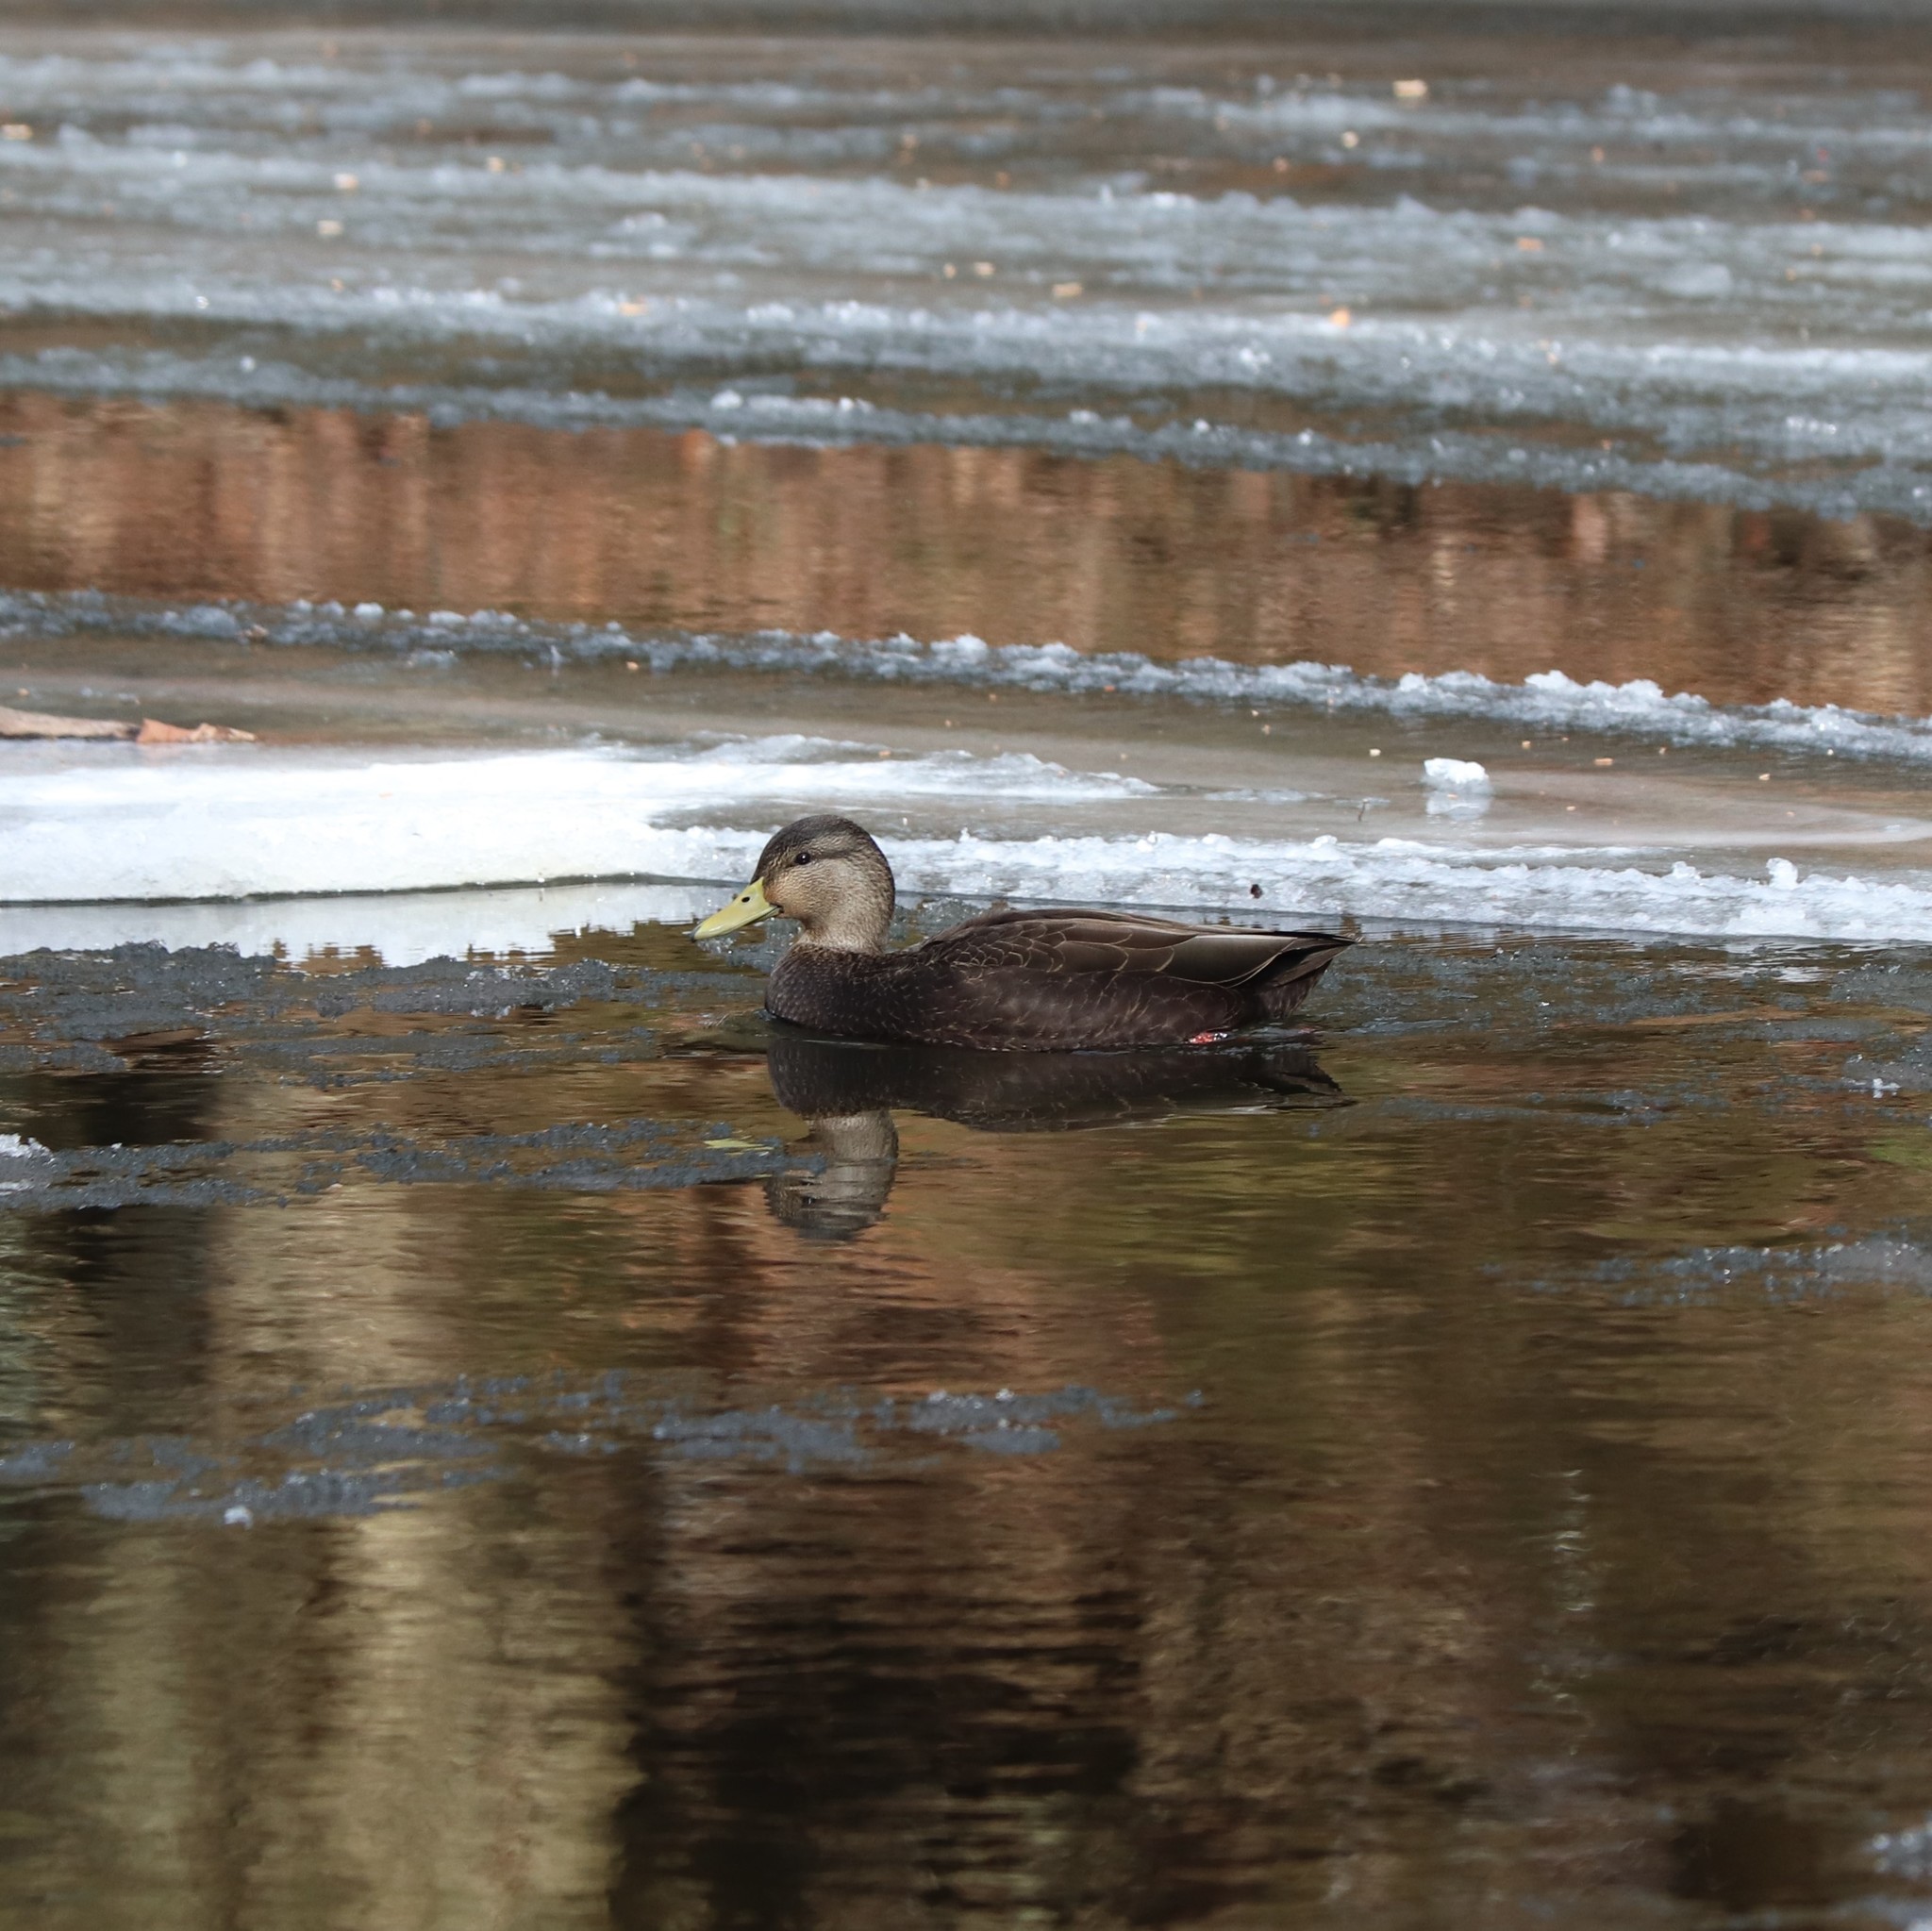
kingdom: Animalia
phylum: Chordata
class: Aves
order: Anseriformes
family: Anatidae
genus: Anas
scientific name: Anas rubripes
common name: American black duck
